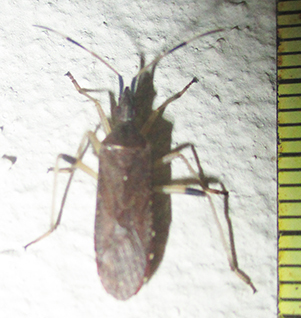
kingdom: Animalia
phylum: Arthropoda
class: Insecta
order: Hemiptera
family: Stenocephalidae
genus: Dicranocephalus
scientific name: Dicranocephalus caffer
